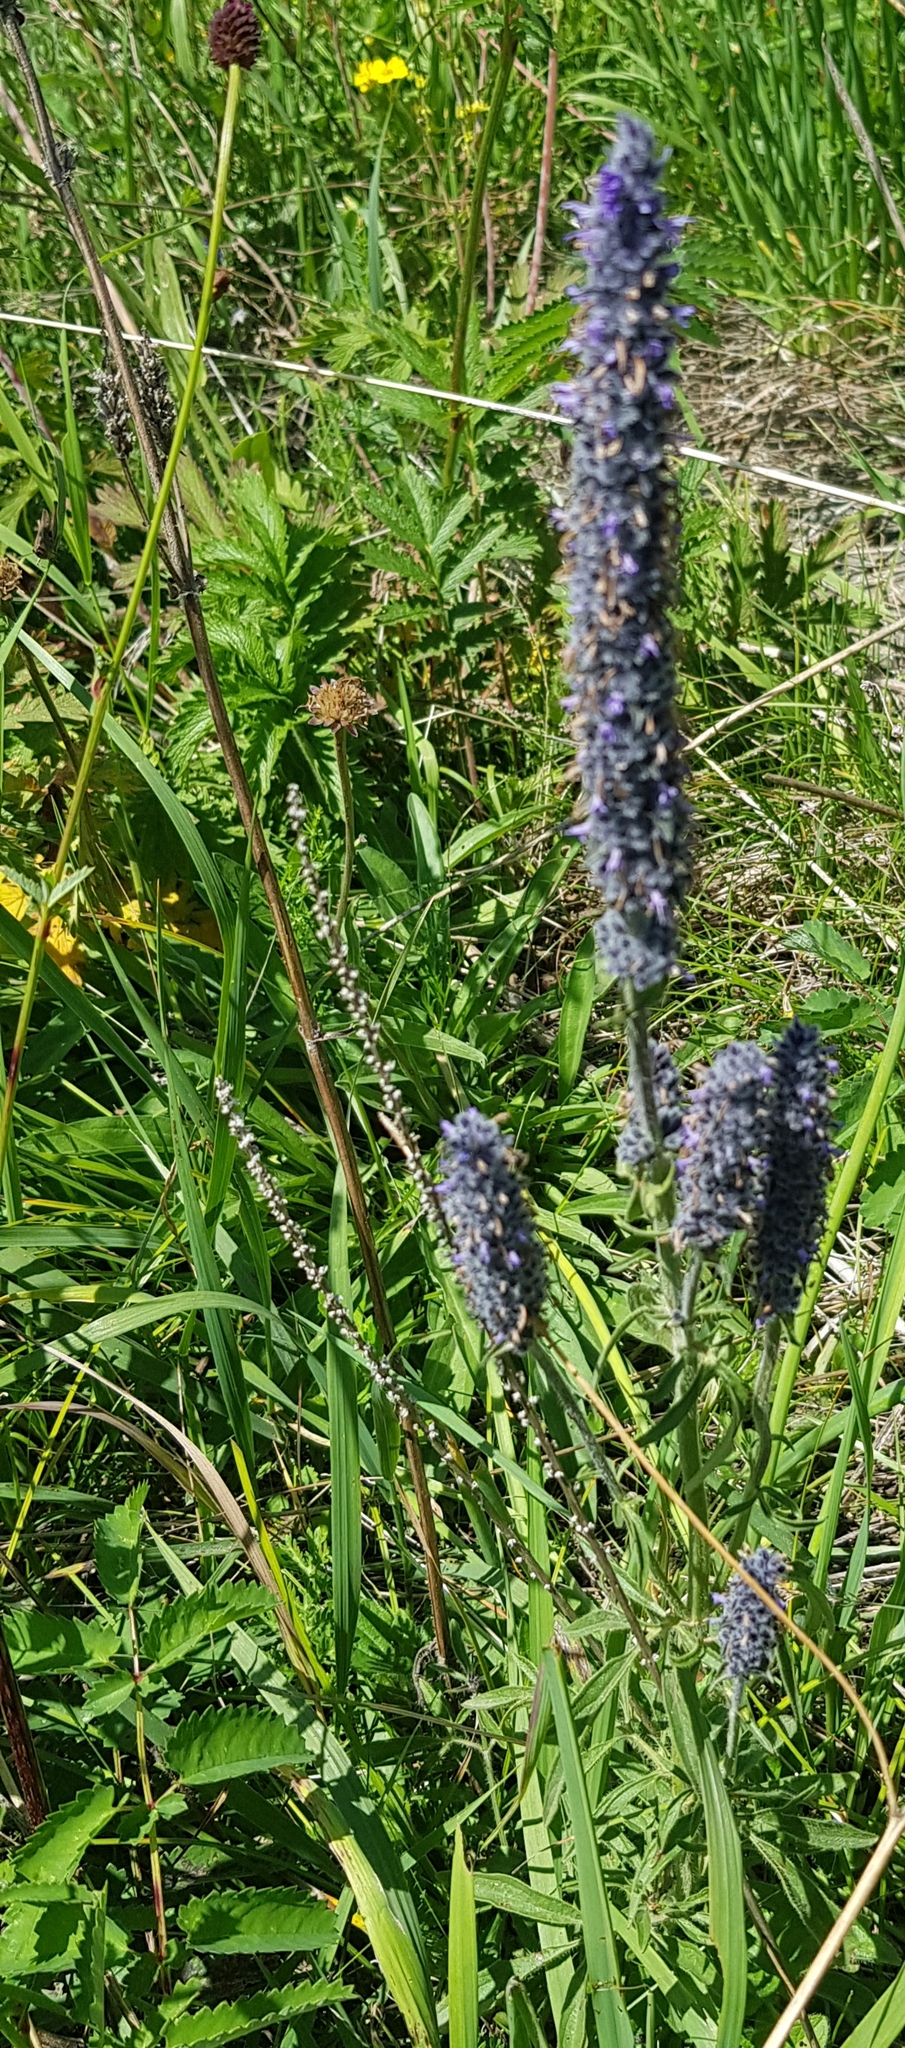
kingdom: Plantae
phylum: Tracheophyta
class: Magnoliopsida
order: Lamiales
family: Lamiaceae
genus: Nepeta
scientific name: Nepeta multifida
